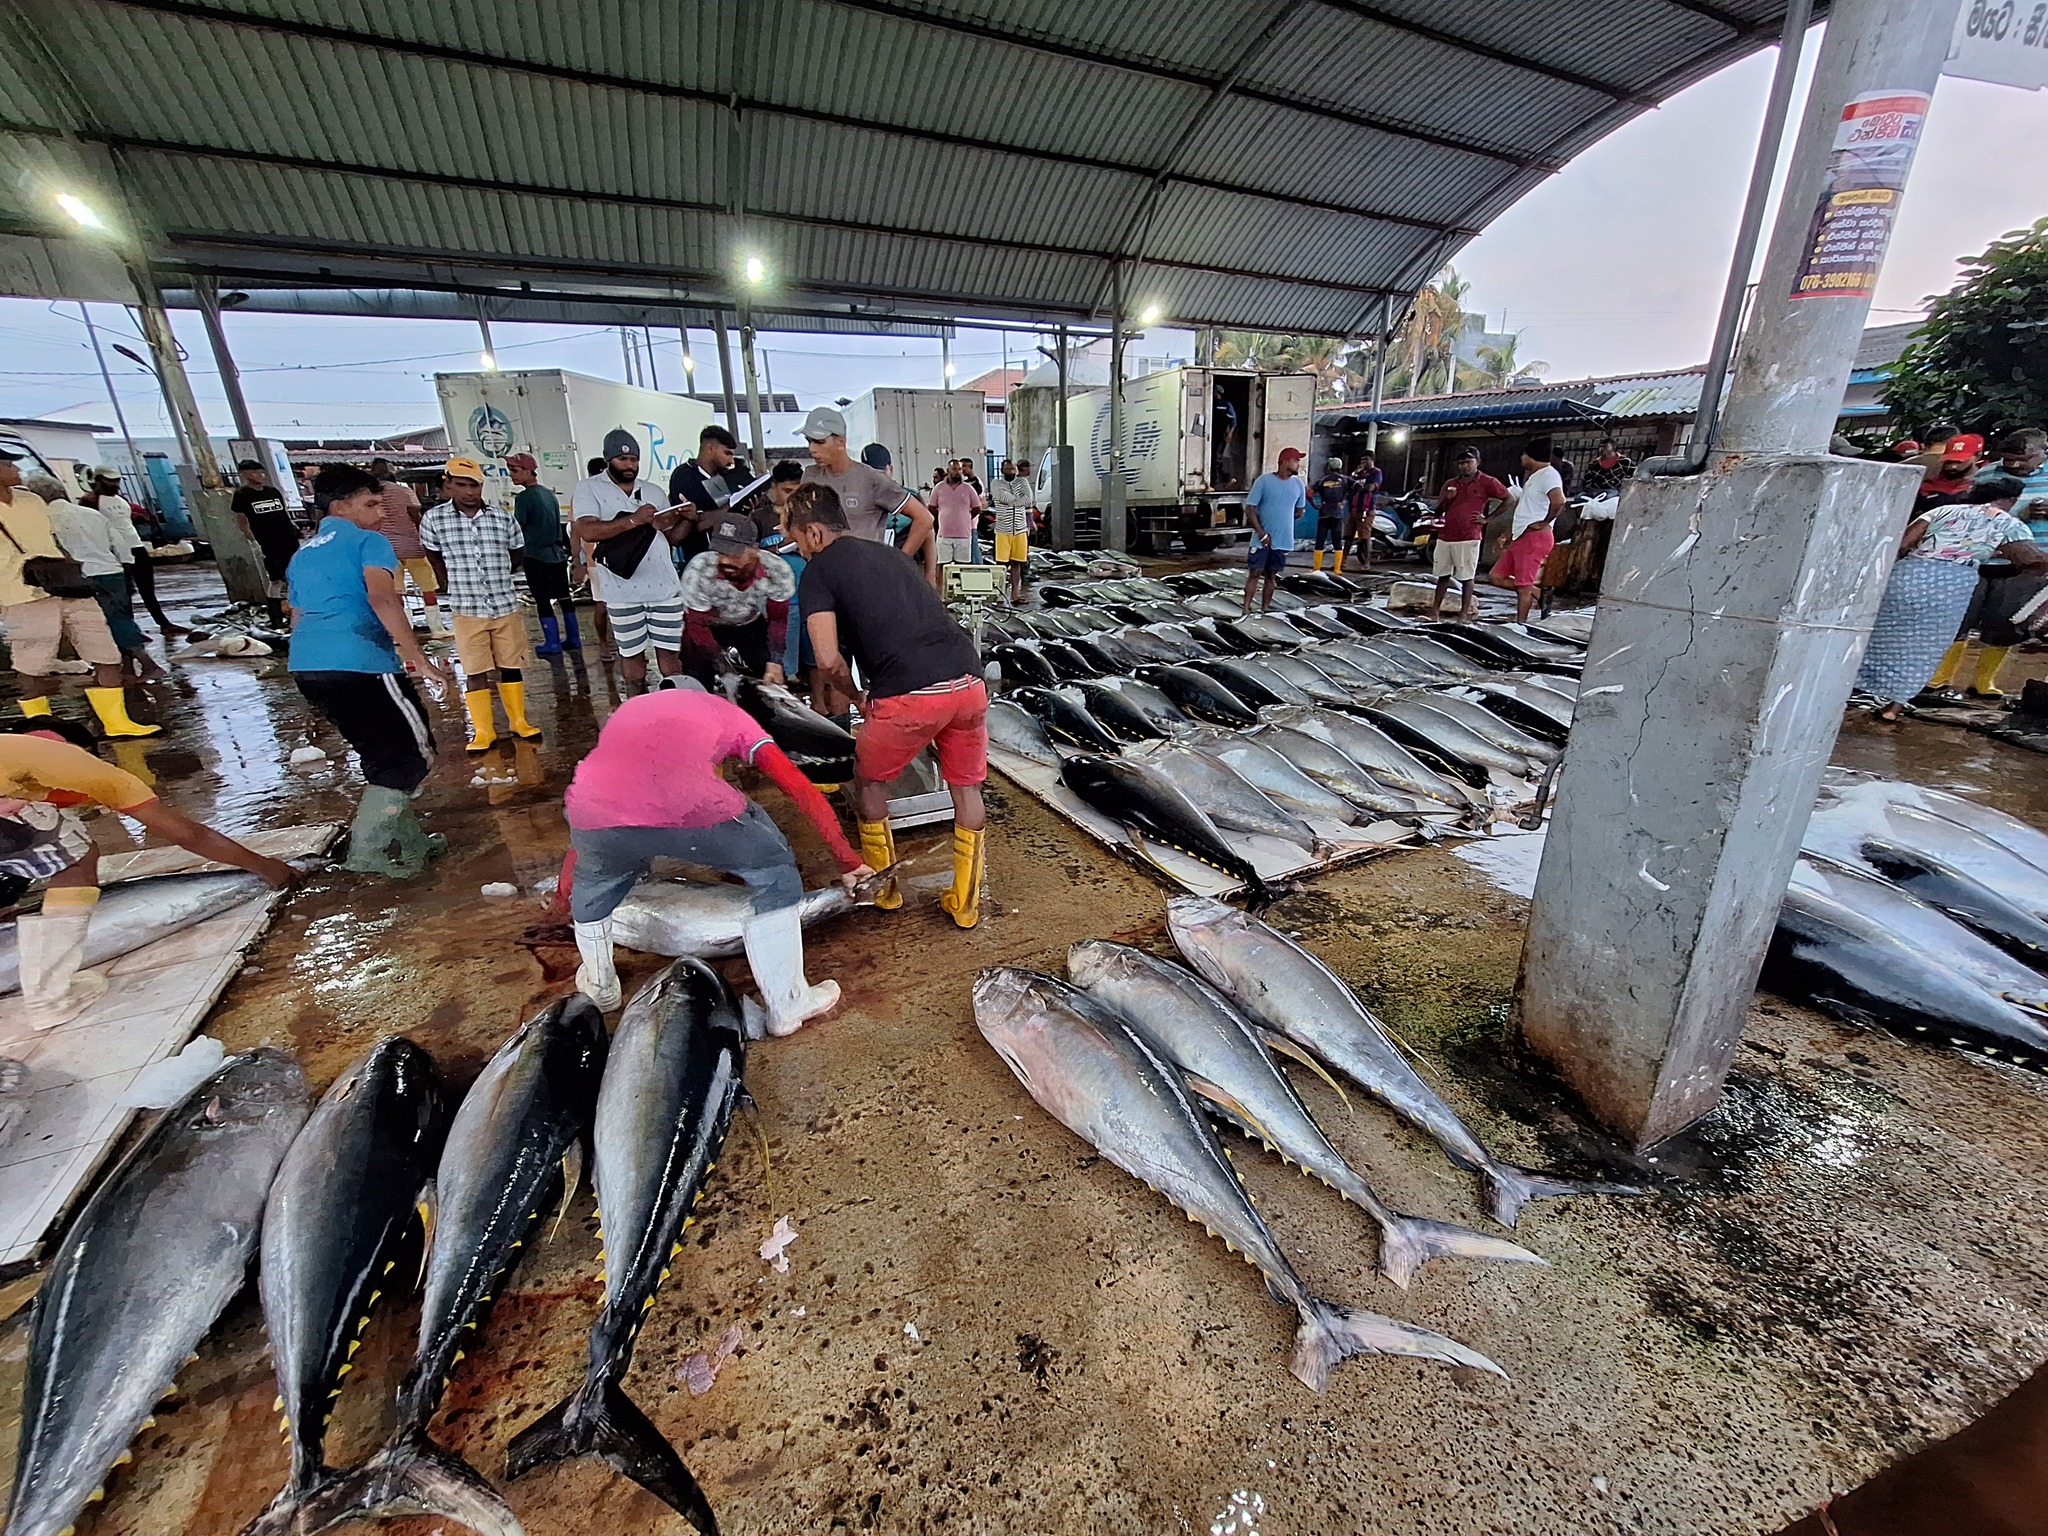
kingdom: Animalia
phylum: Chordata
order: Perciformes
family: Scombridae
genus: Thunnus
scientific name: Thunnus albacares
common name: Yellowfin tuna
